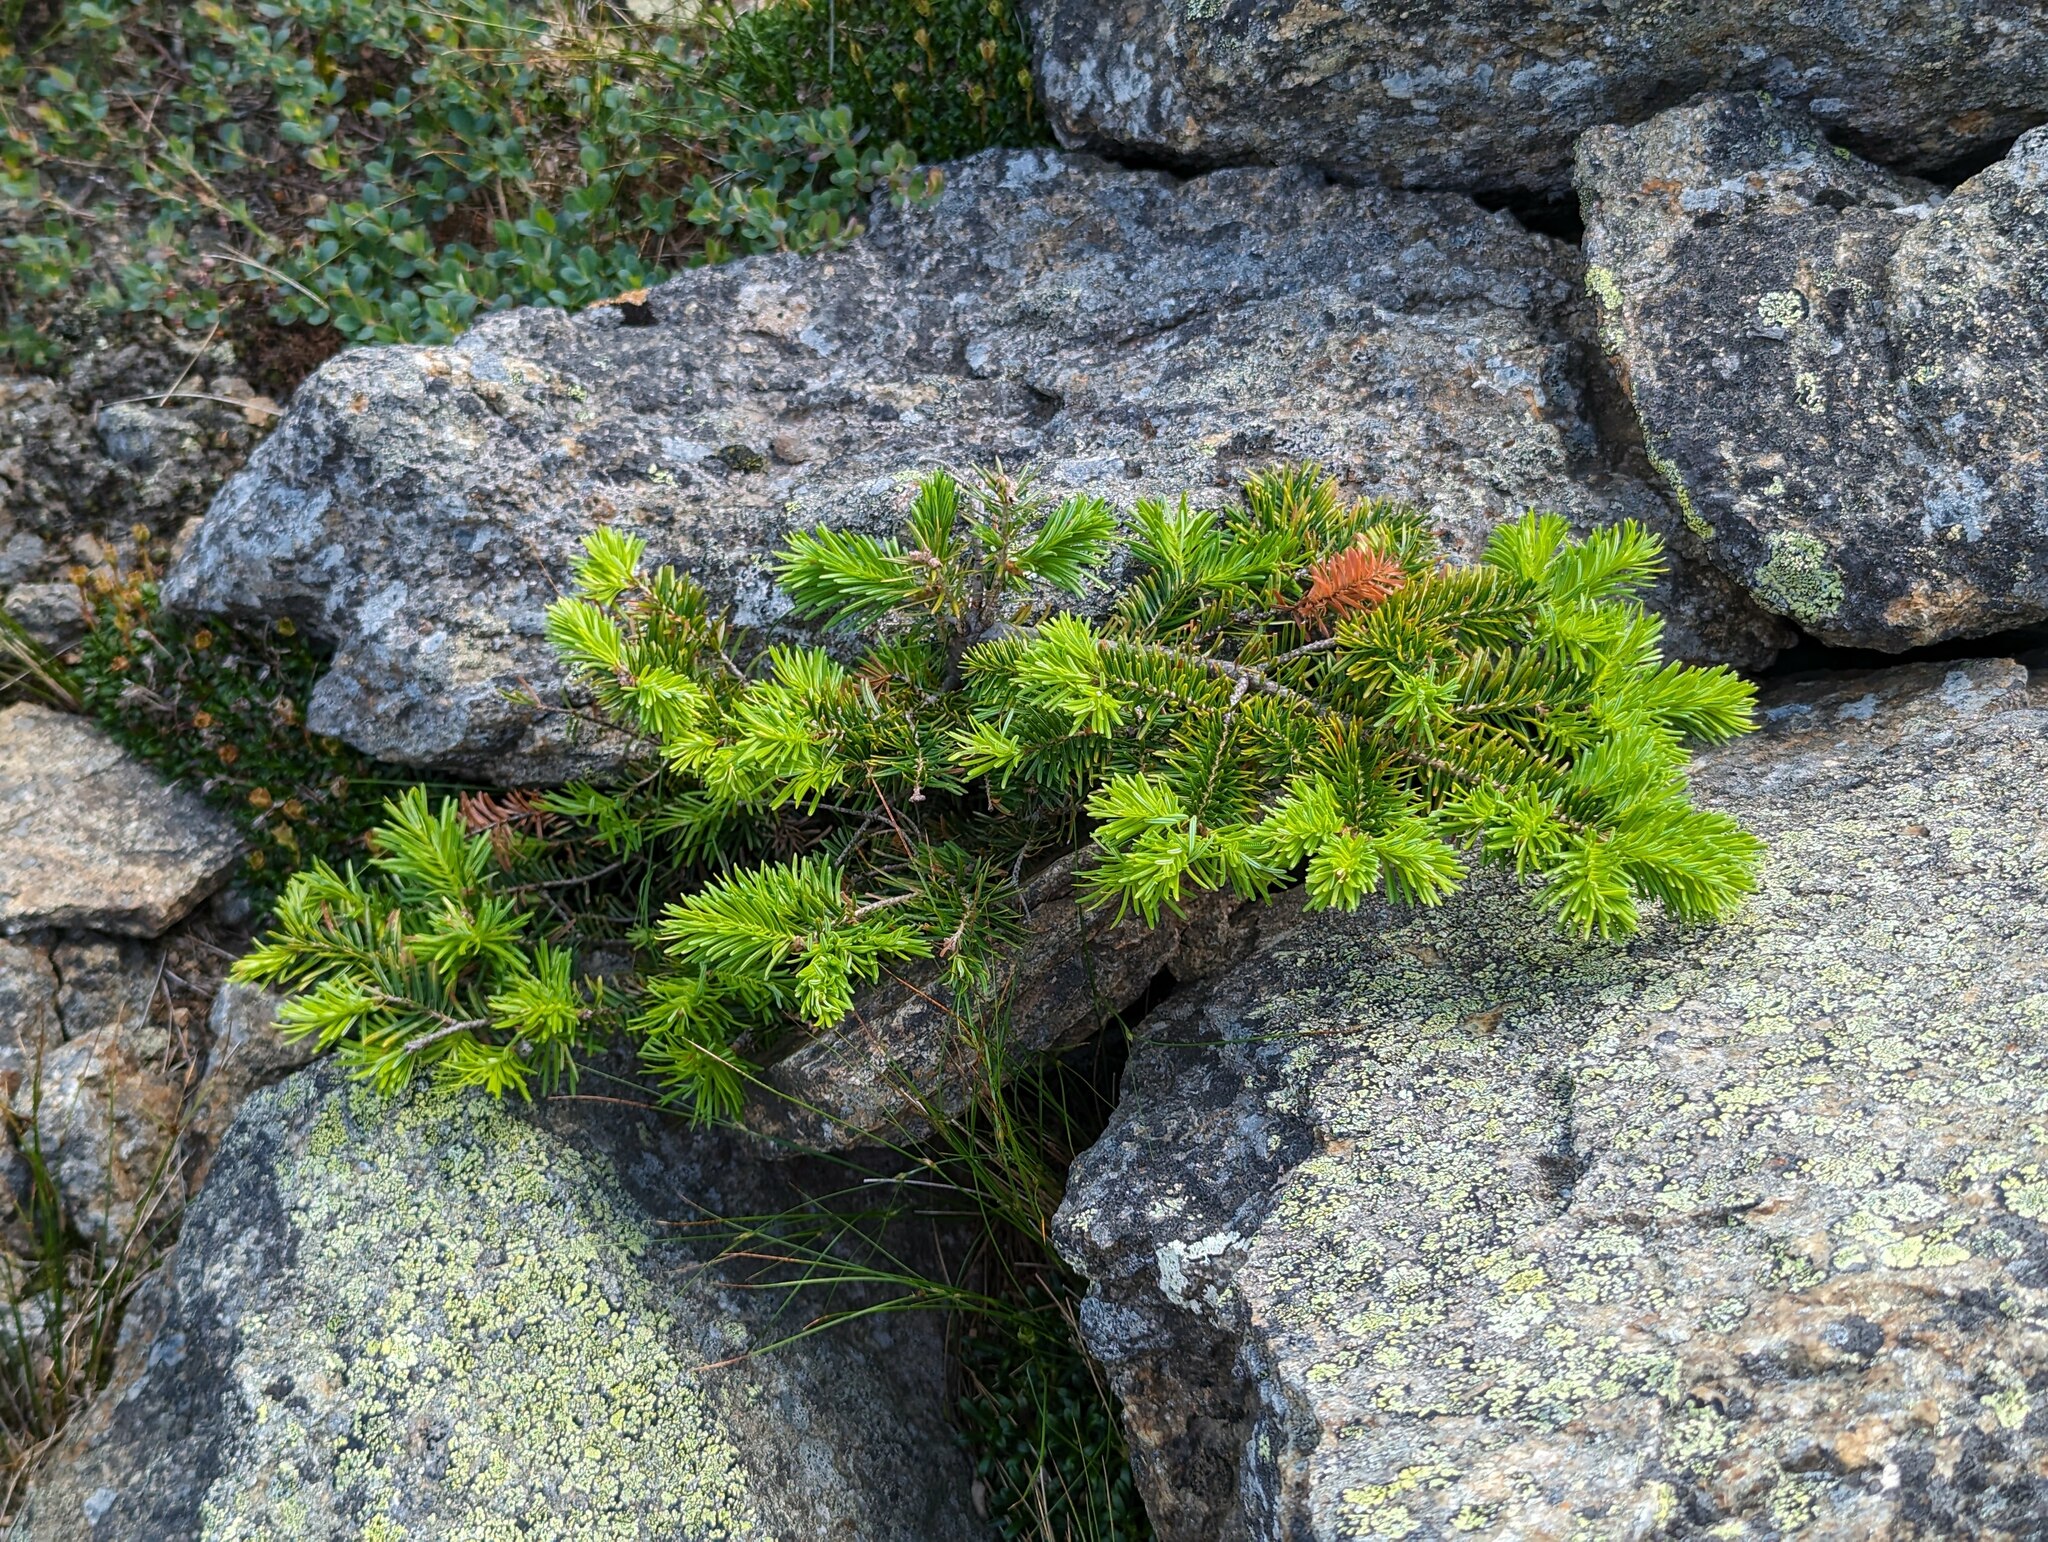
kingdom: Plantae
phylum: Tracheophyta
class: Pinopsida
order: Pinales
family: Pinaceae
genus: Abies
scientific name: Abies balsamea
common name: Balsam fir
